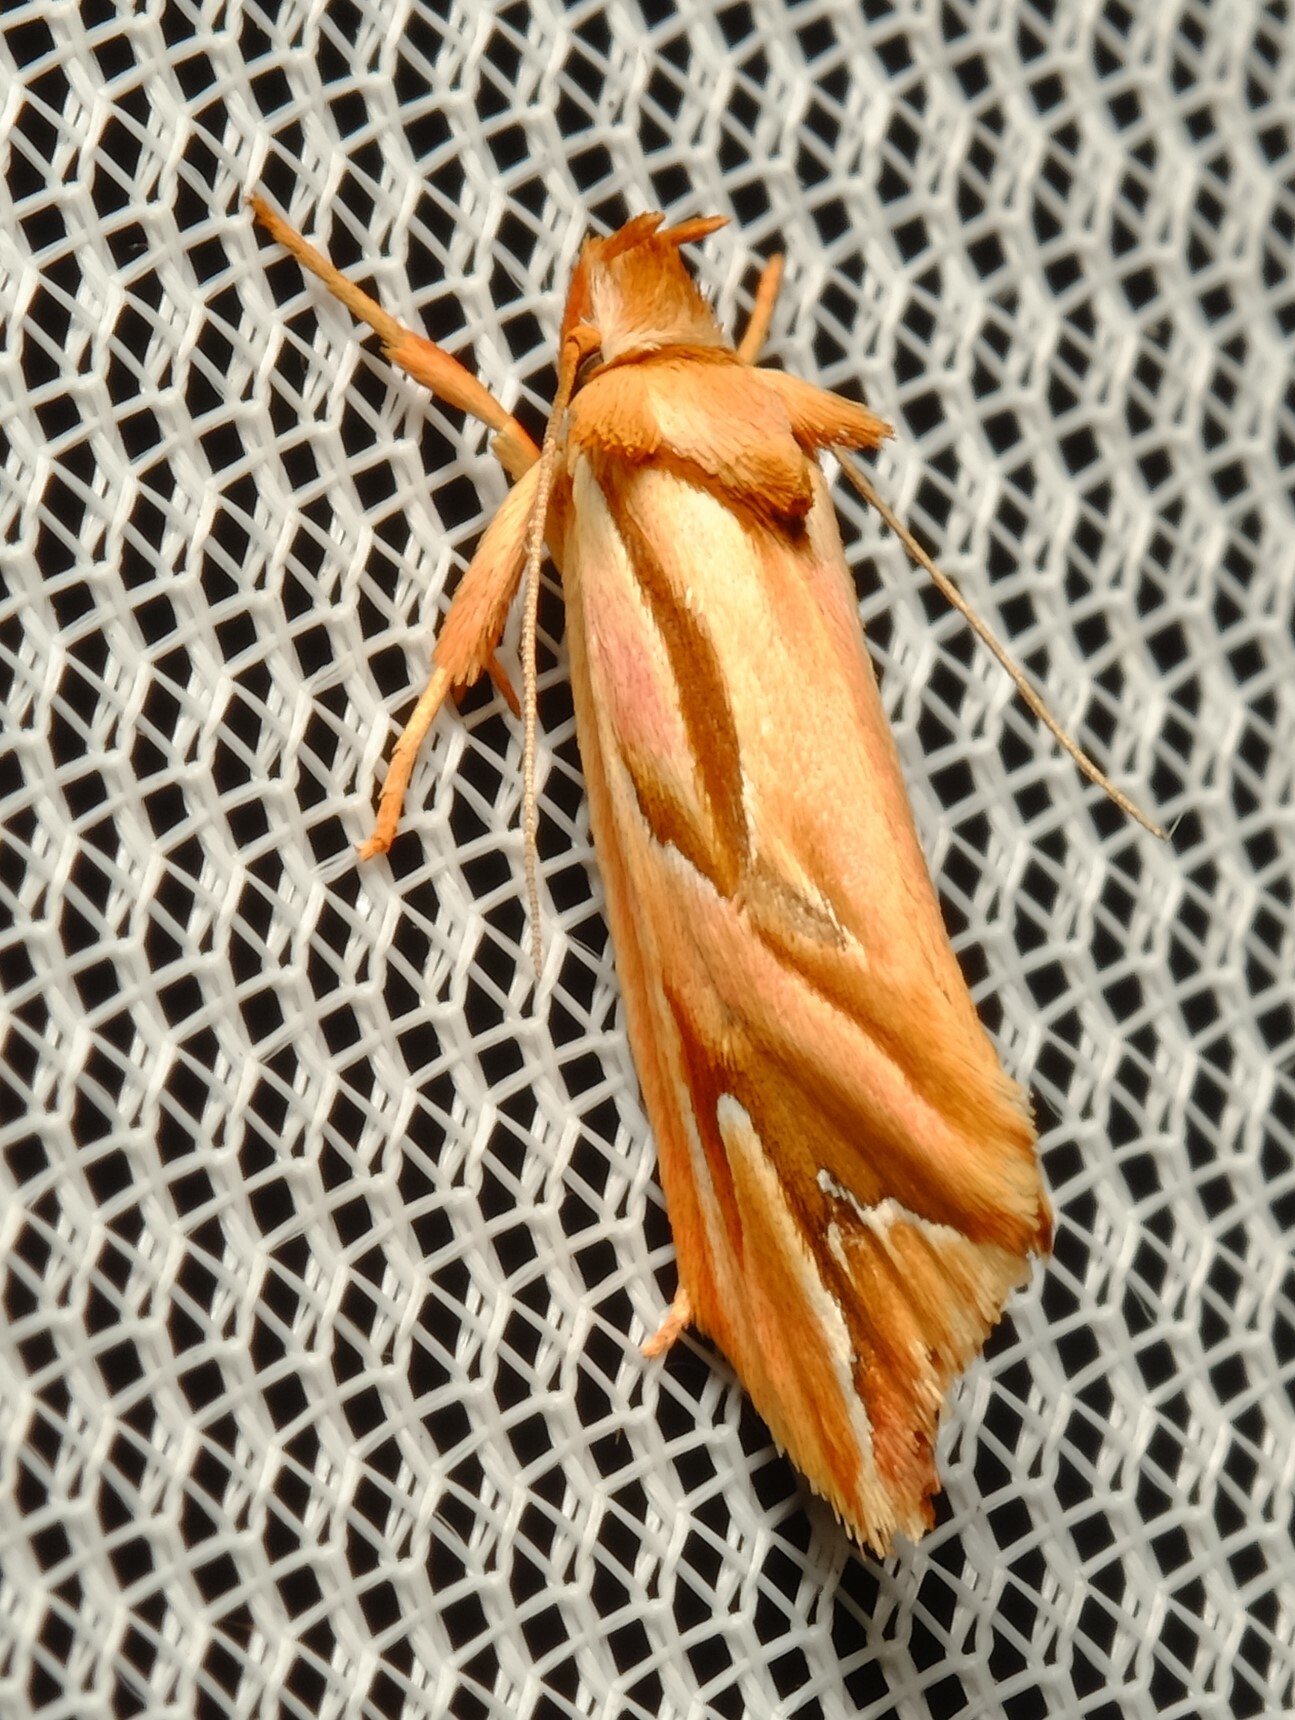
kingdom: Animalia
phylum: Arthropoda
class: Insecta
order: Lepidoptera
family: Depressariidae
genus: Eclecta
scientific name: Eclecta aurorella
